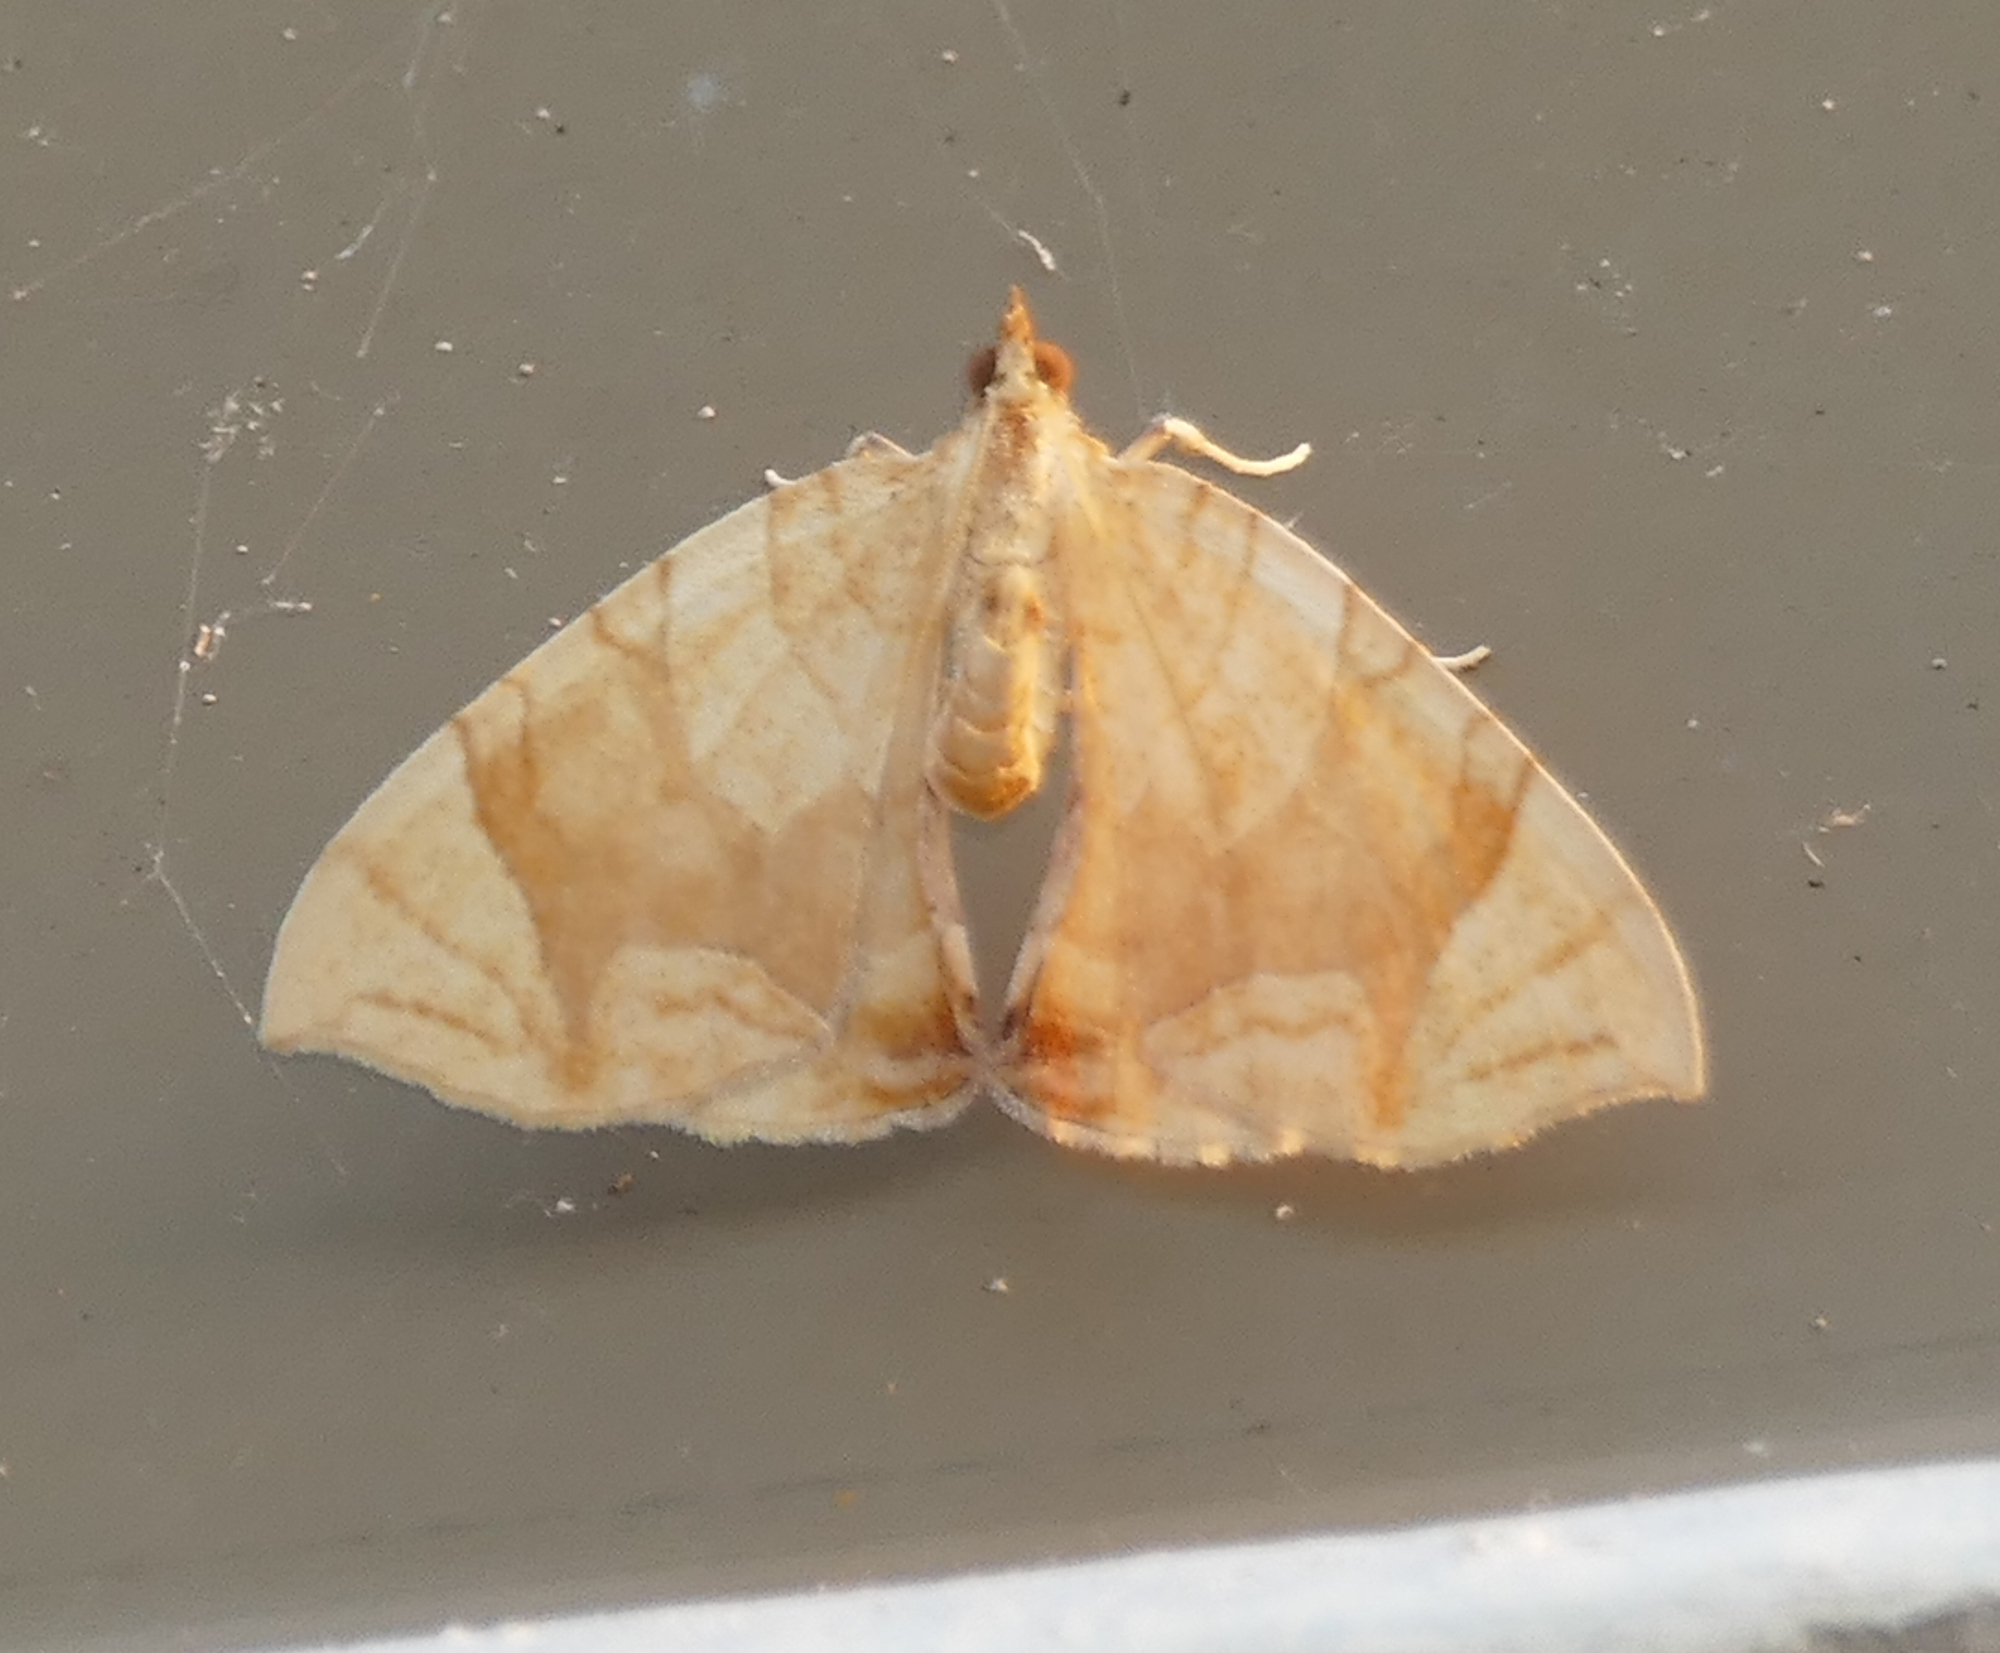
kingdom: Animalia
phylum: Arthropoda
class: Insecta
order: Lepidoptera
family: Geometridae
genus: Eulithis
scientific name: Eulithis
